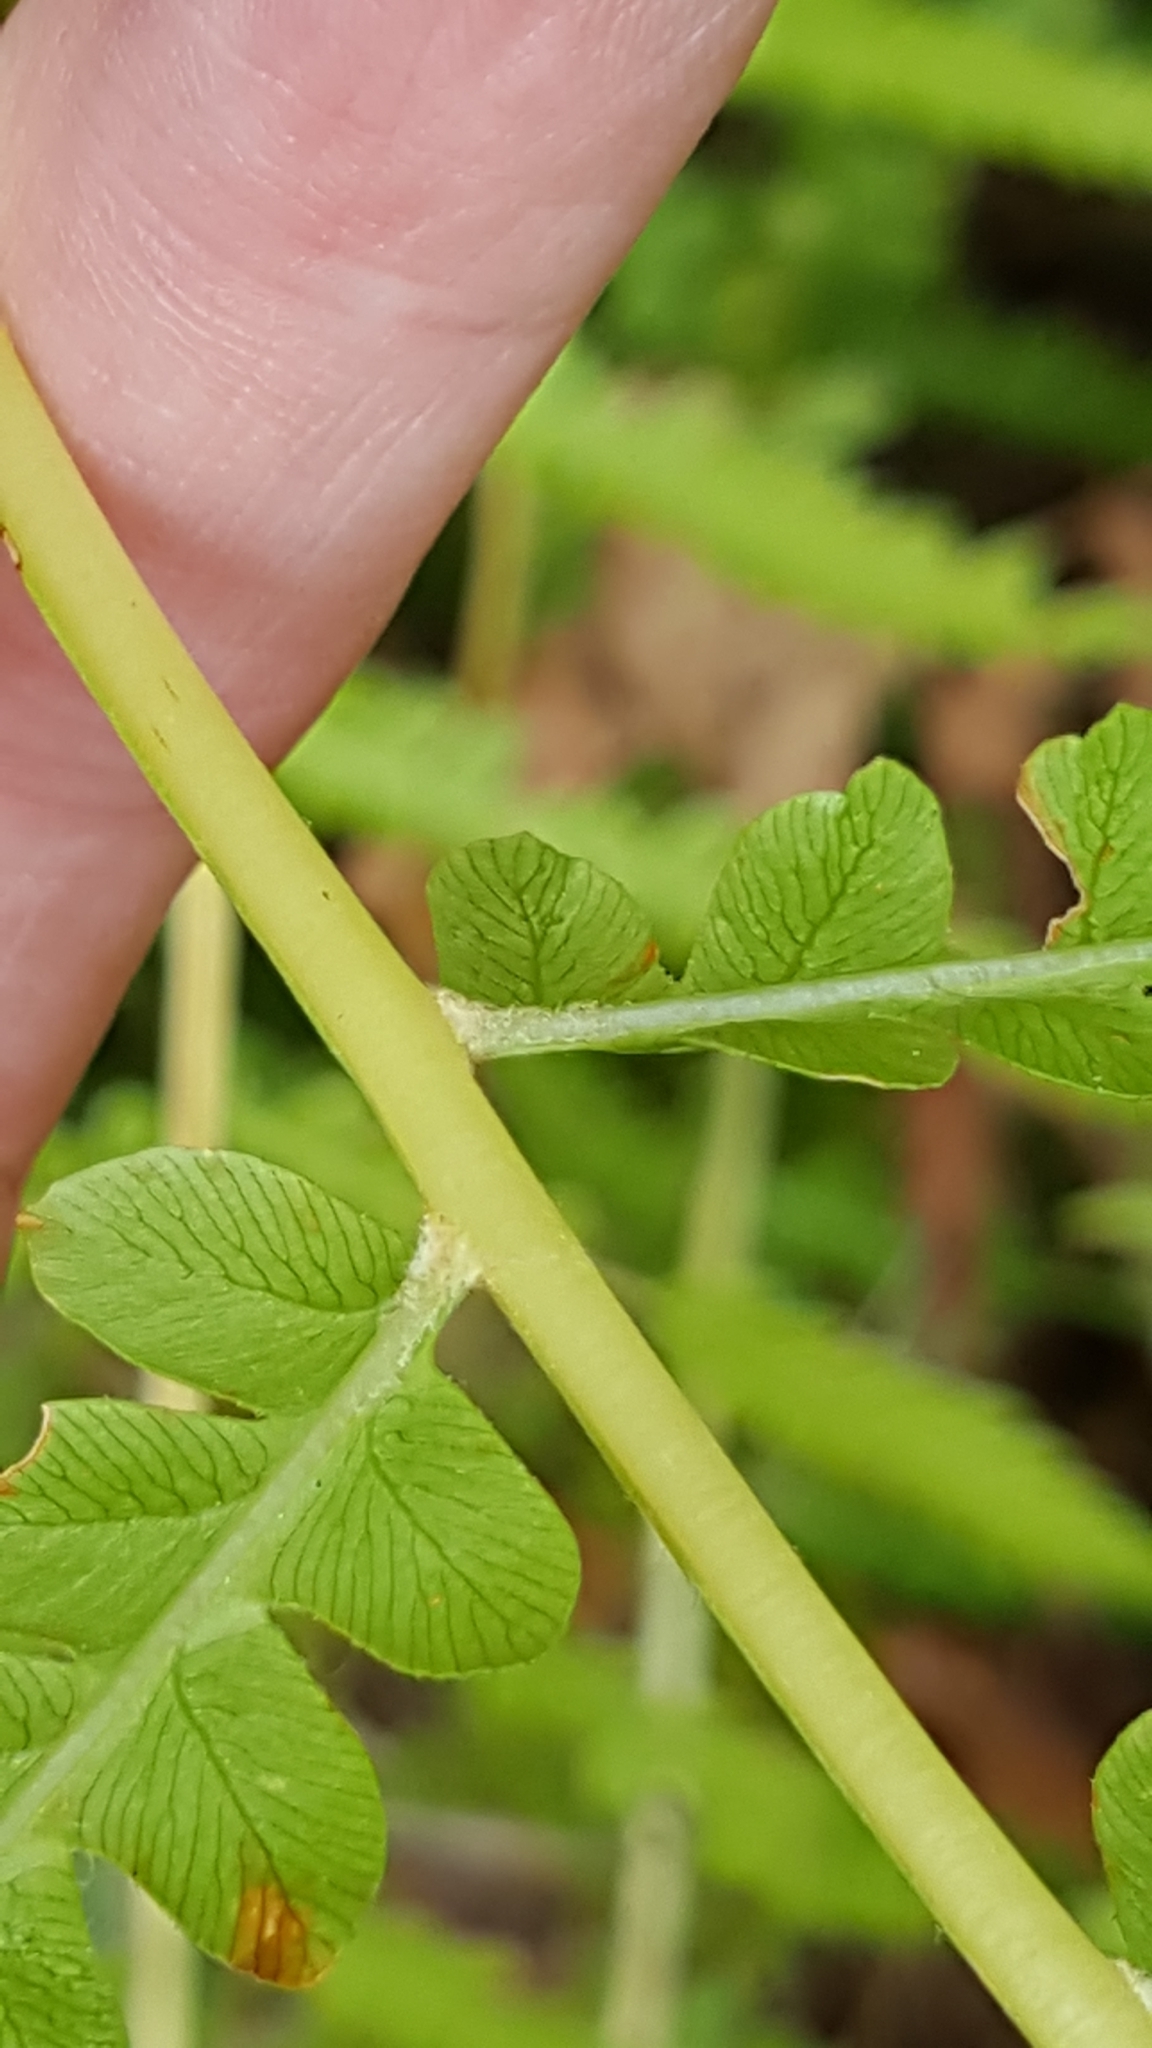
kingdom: Plantae
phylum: Tracheophyta
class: Polypodiopsida
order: Osmundales
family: Osmundaceae
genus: Osmundastrum
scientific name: Osmundastrum cinnamomeum
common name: Cinnamon fern
